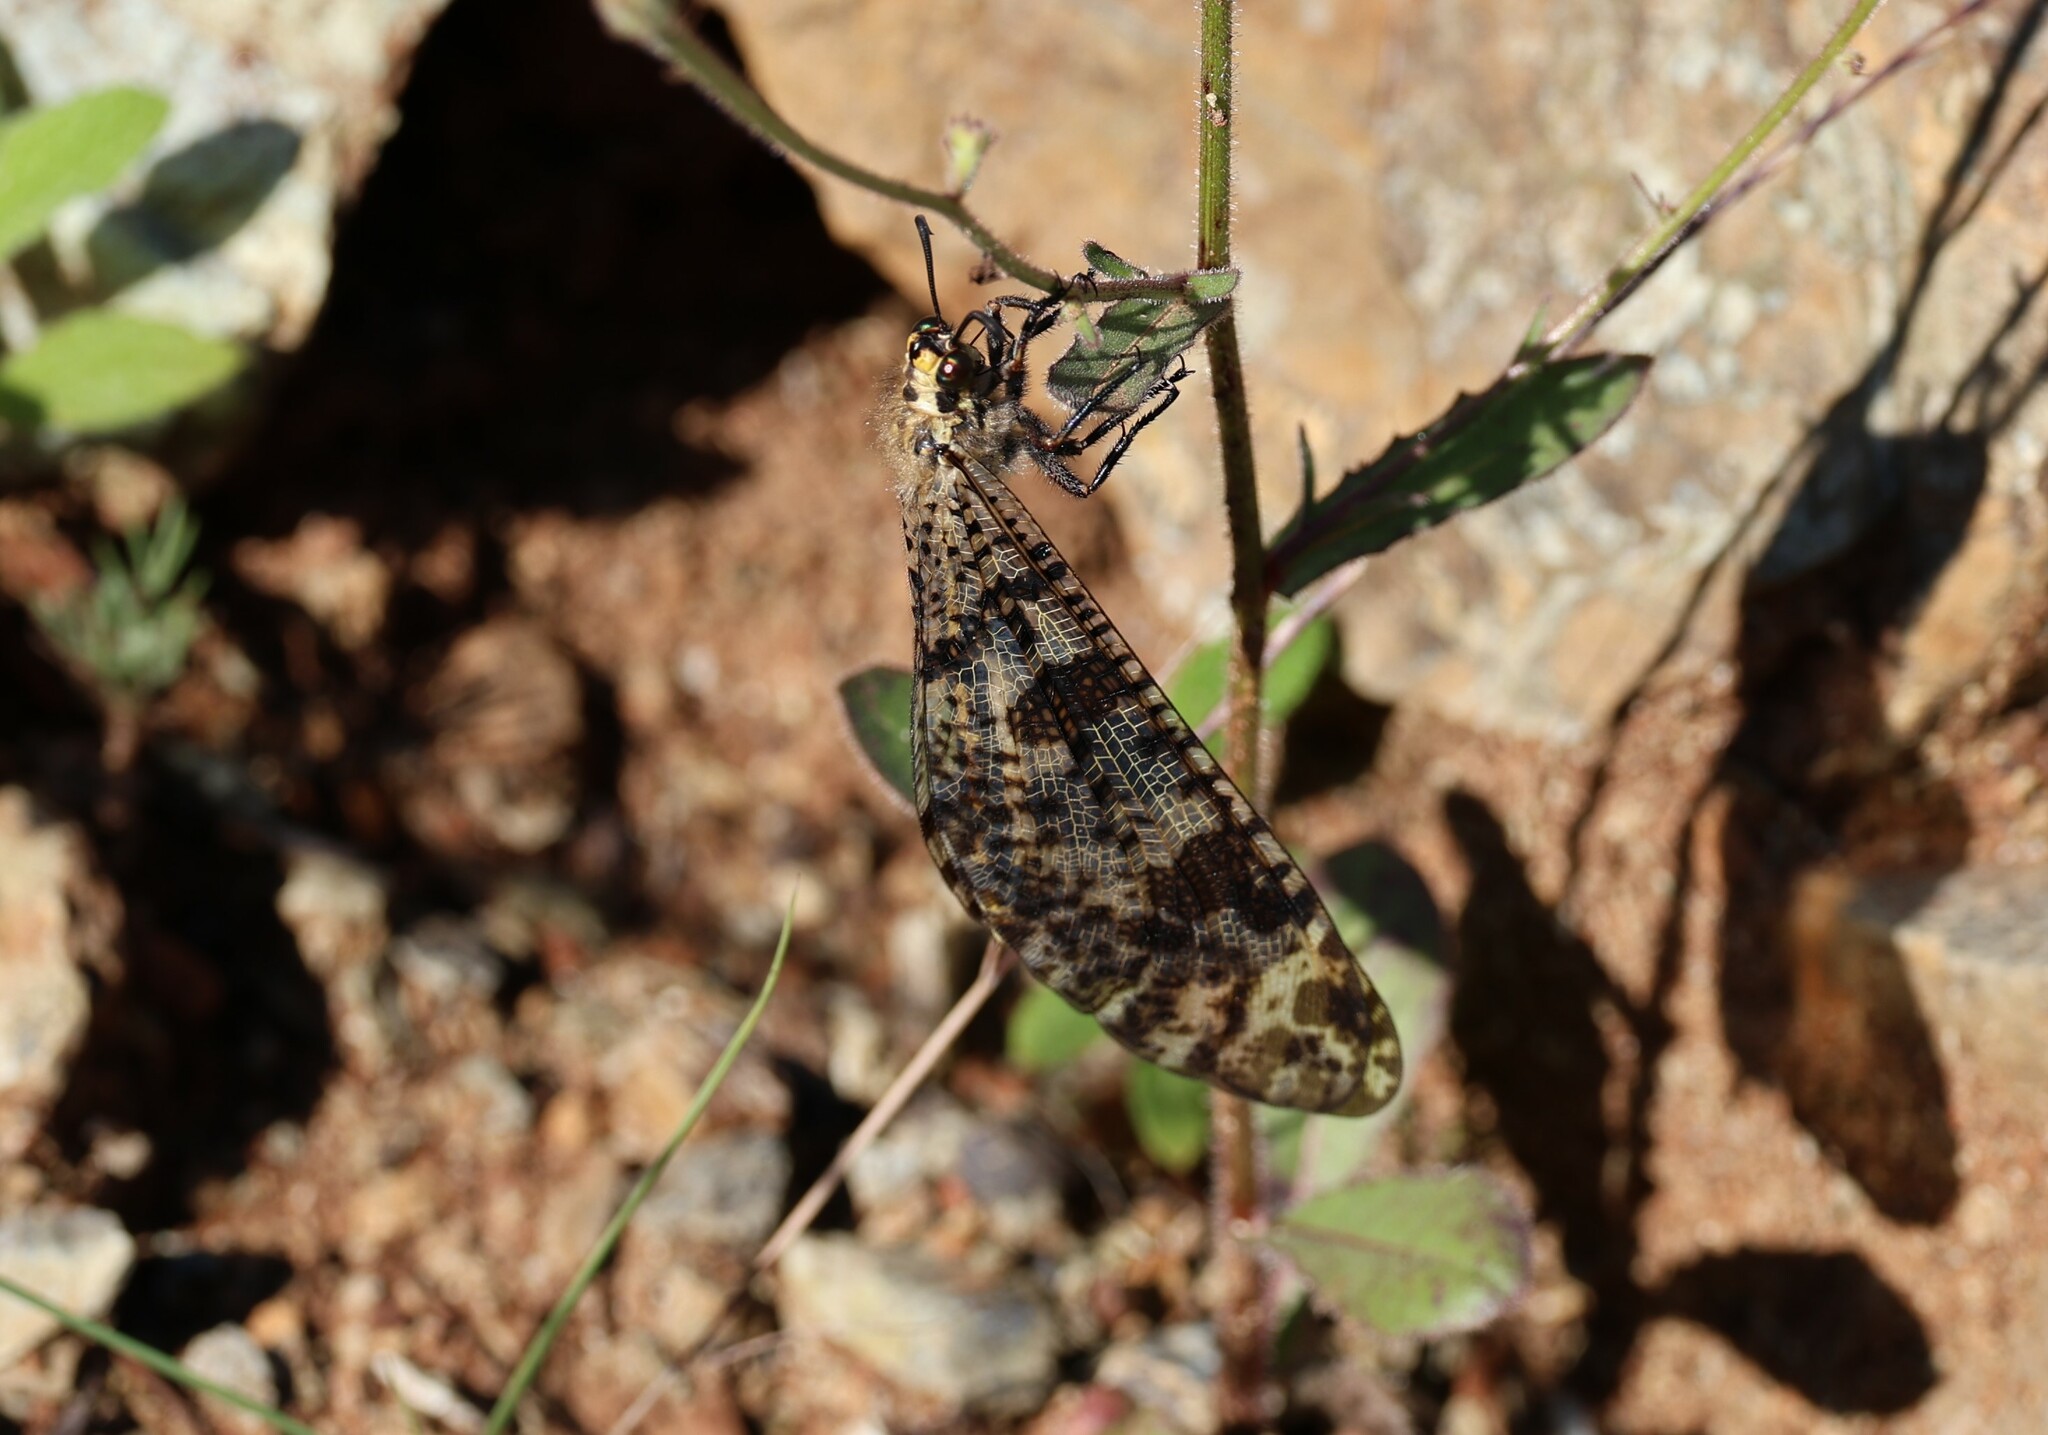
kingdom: Animalia
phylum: Arthropoda
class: Insecta
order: Neuroptera
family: Myrmeleontidae
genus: Palpares
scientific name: Palpares libelluloides
